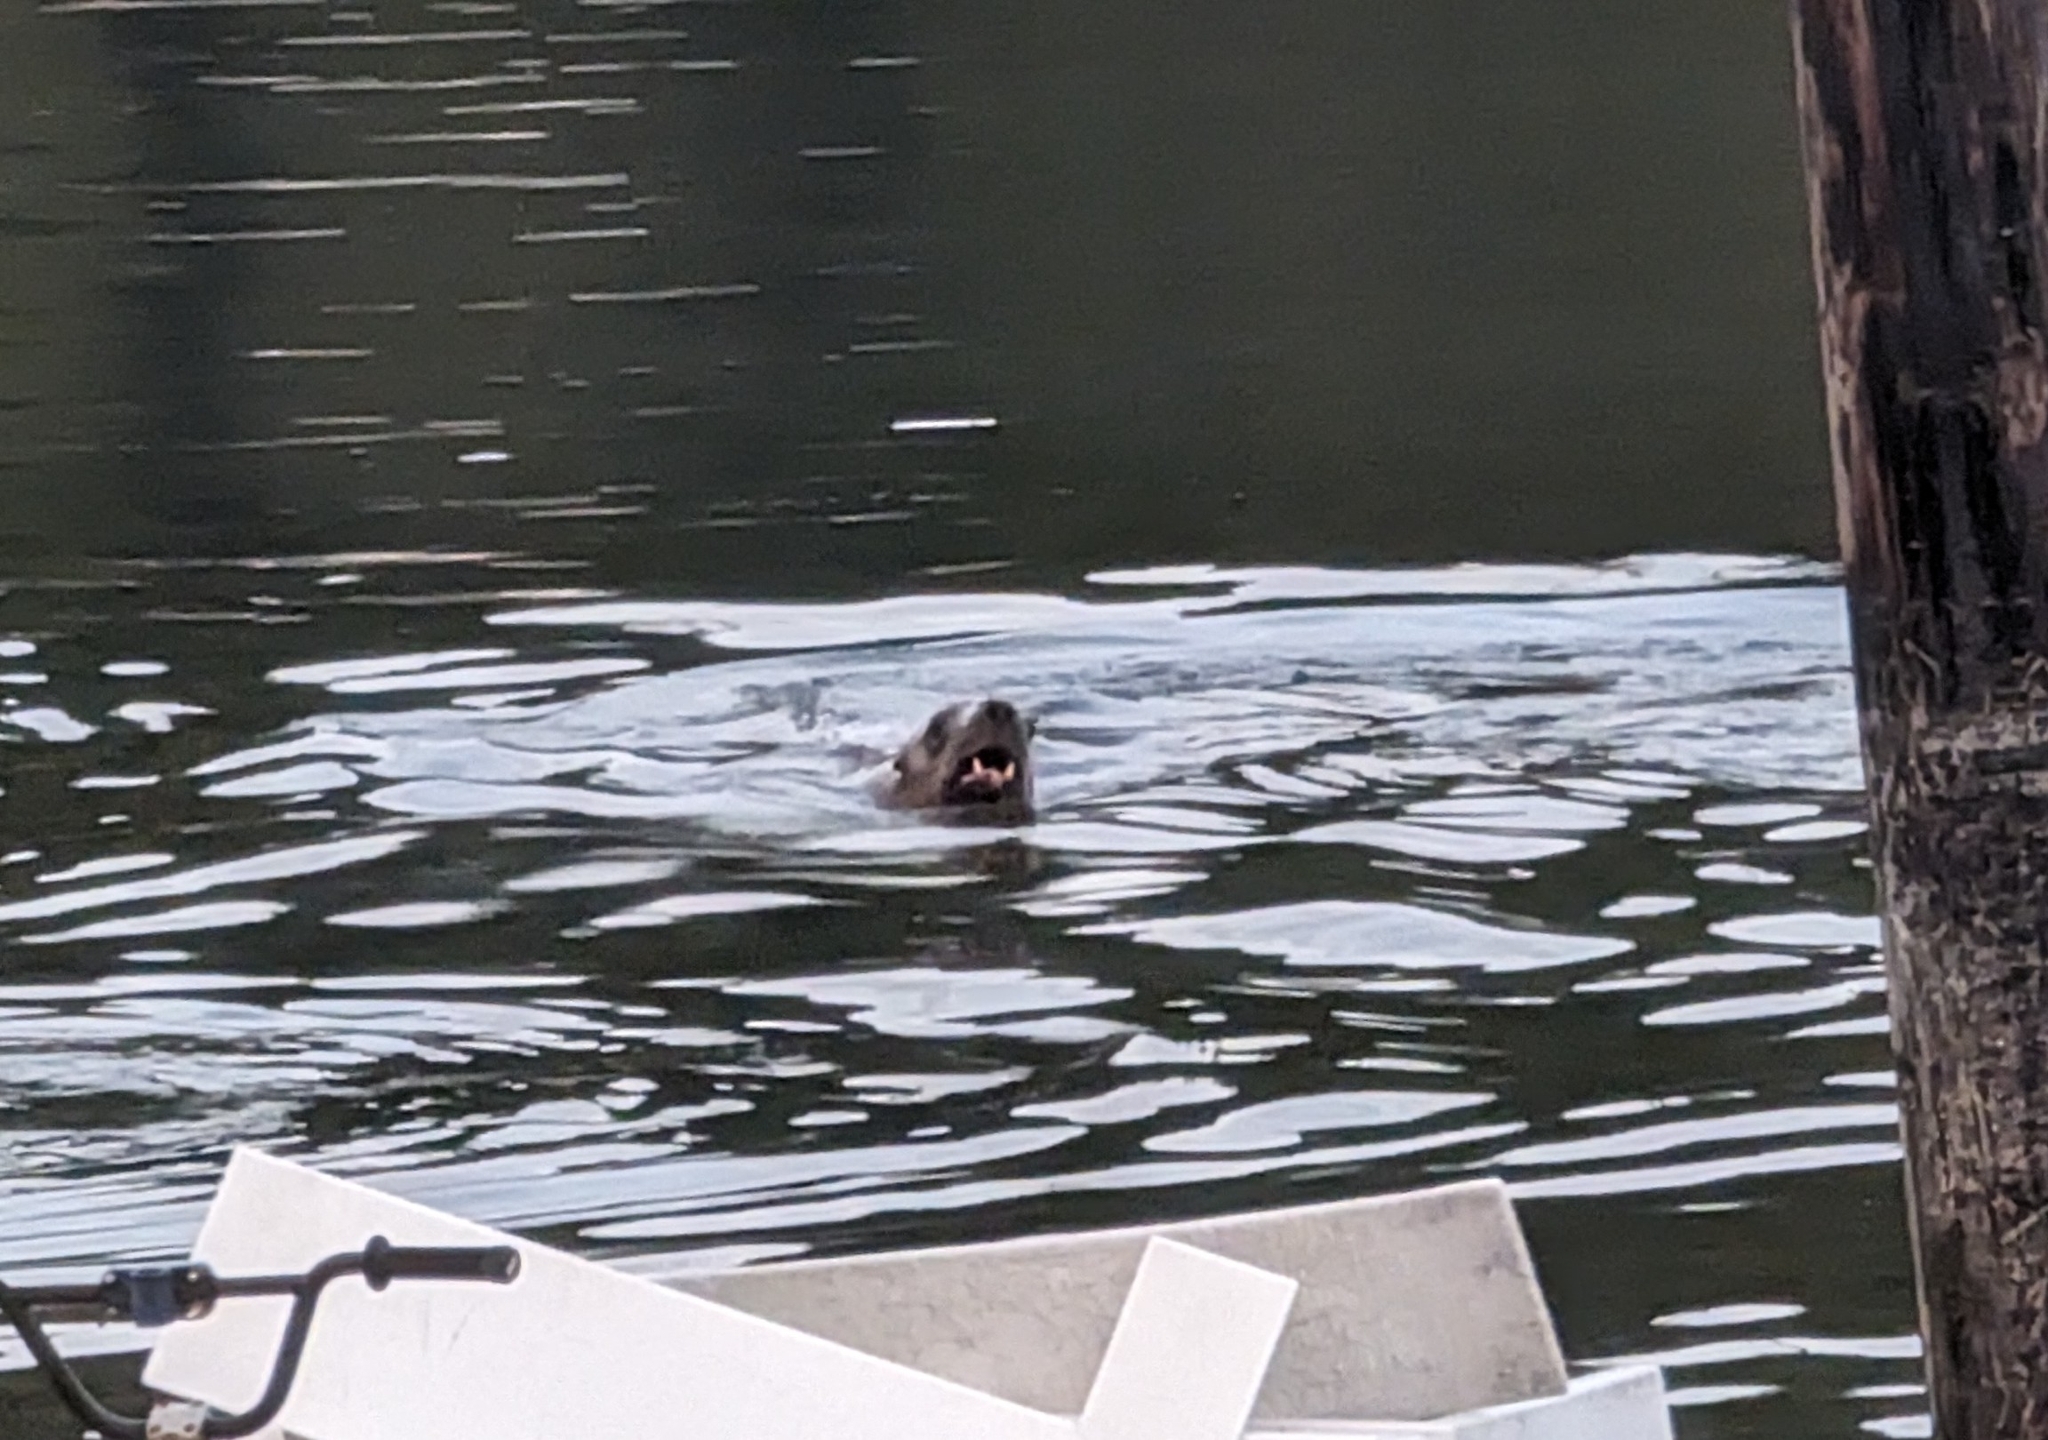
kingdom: Animalia
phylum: Chordata
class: Mammalia
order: Carnivora
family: Otariidae
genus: Eumetopias
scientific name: Eumetopias jubatus
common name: Steller sea lion
